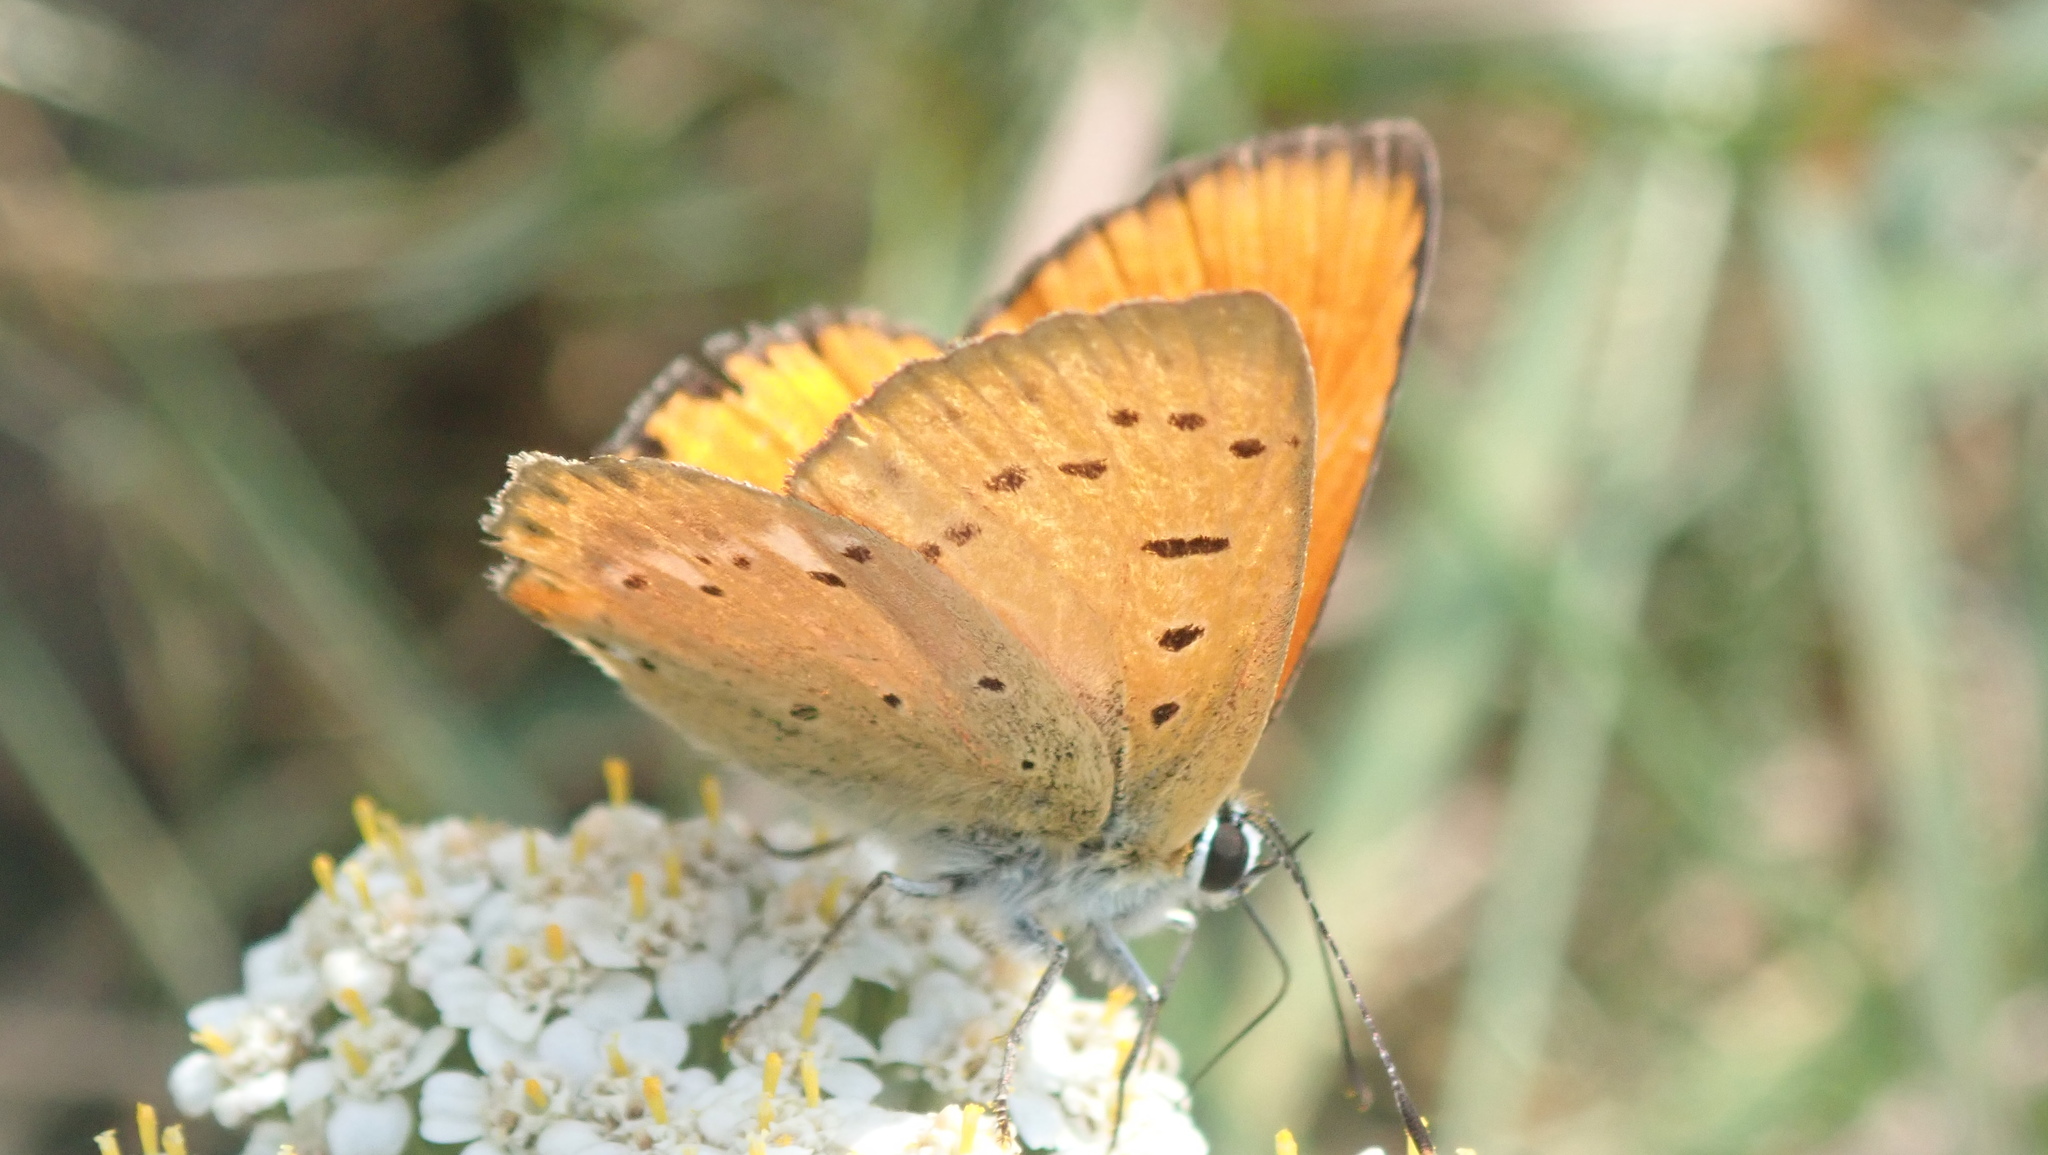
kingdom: Animalia
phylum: Arthropoda
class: Insecta
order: Lepidoptera
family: Lycaenidae
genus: Lycaena
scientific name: Lycaena virgaureae
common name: Scarce copper
